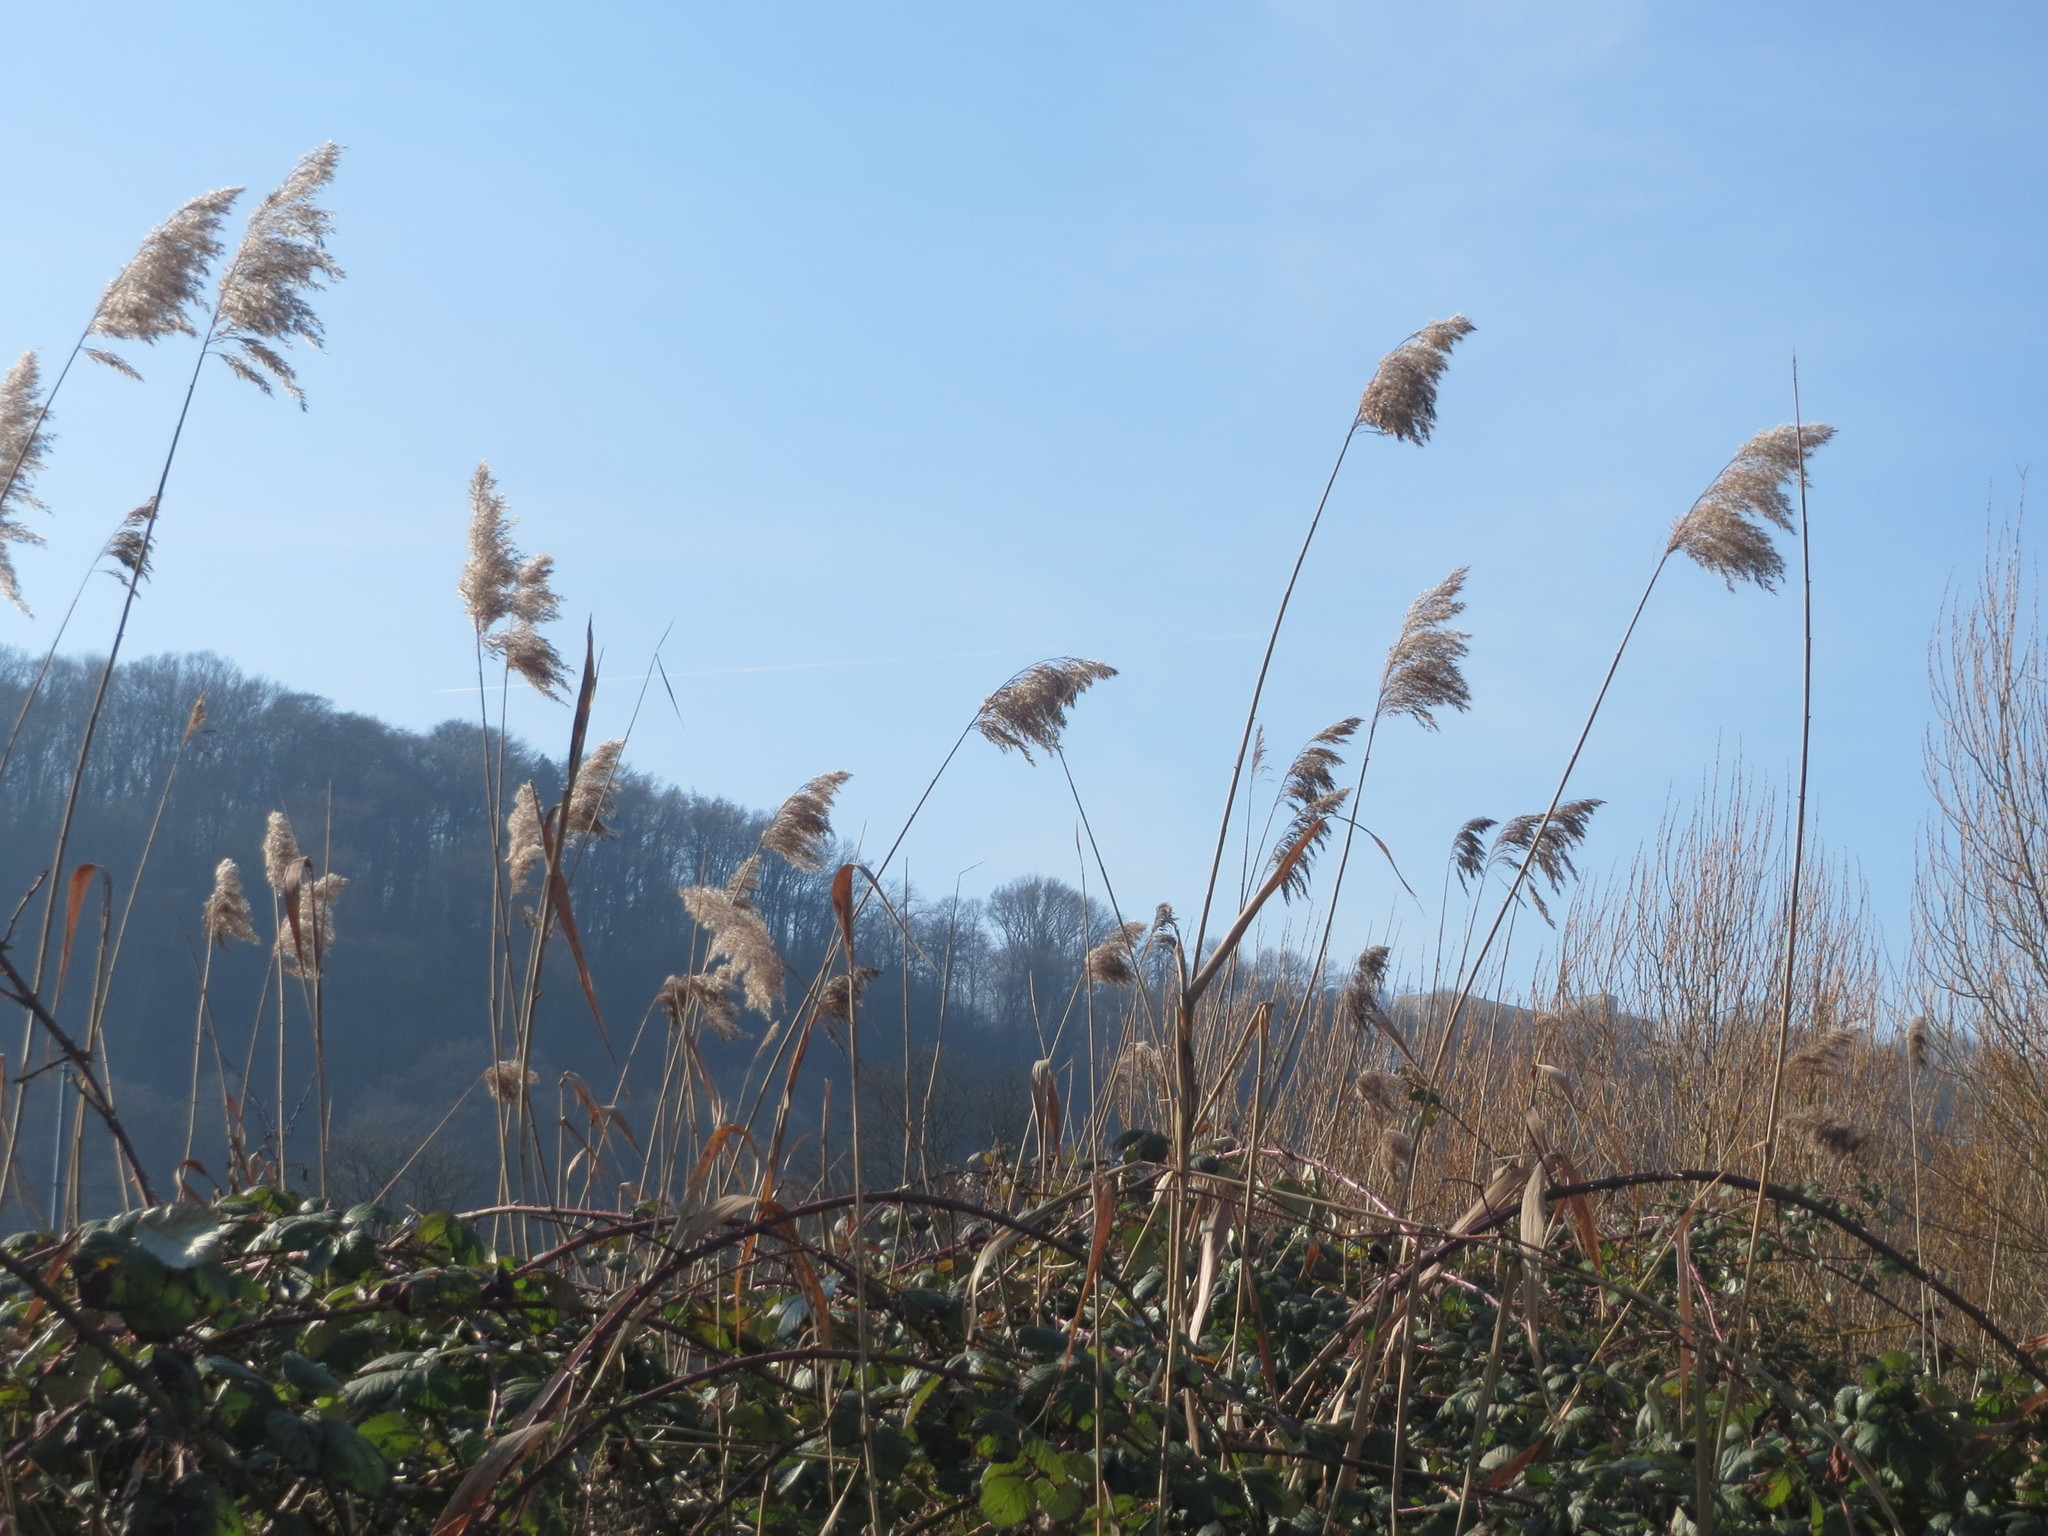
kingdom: Plantae
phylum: Tracheophyta
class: Liliopsida
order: Poales
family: Poaceae
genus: Phragmites
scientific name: Phragmites australis
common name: Common reed
